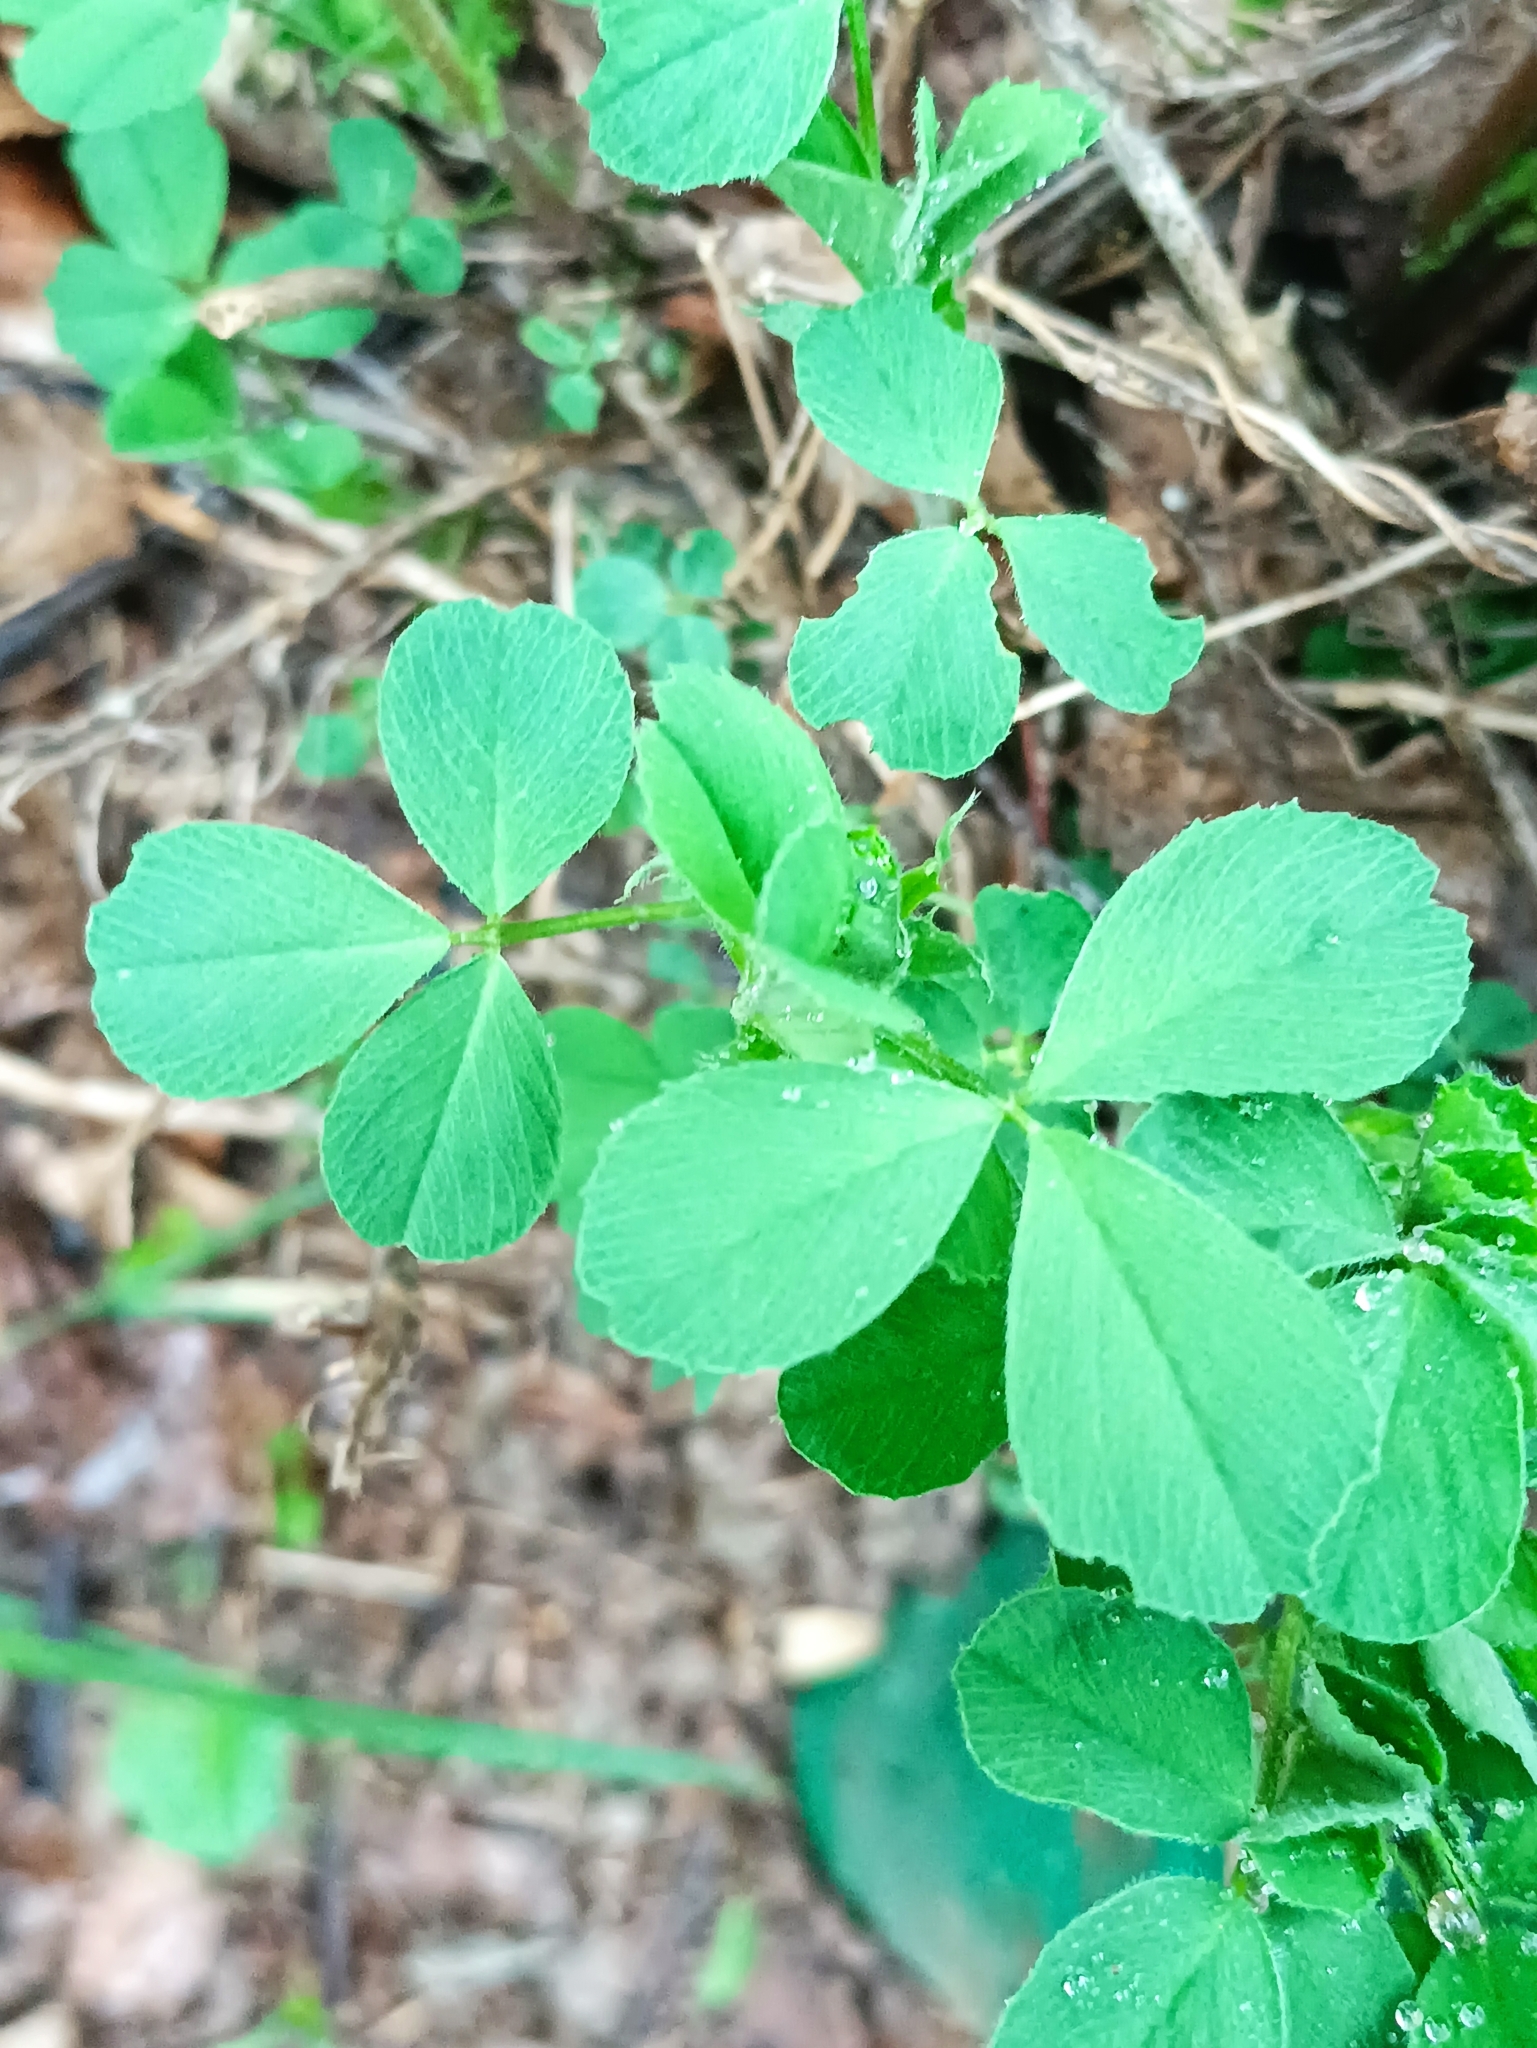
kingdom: Plantae
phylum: Tracheophyta
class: Magnoliopsida
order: Fabales
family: Fabaceae
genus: Medicago
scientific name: Medicago lupulina
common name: Black medick
